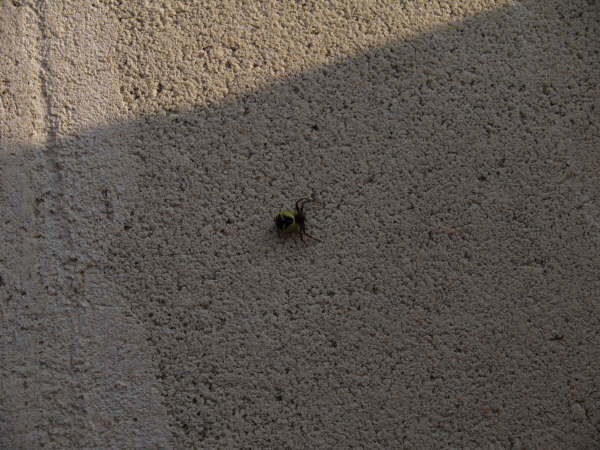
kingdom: Animalia
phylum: Arthropoda
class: Arachnida
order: Araneae
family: Thomisidae
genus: Synema
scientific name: Synema globosum
